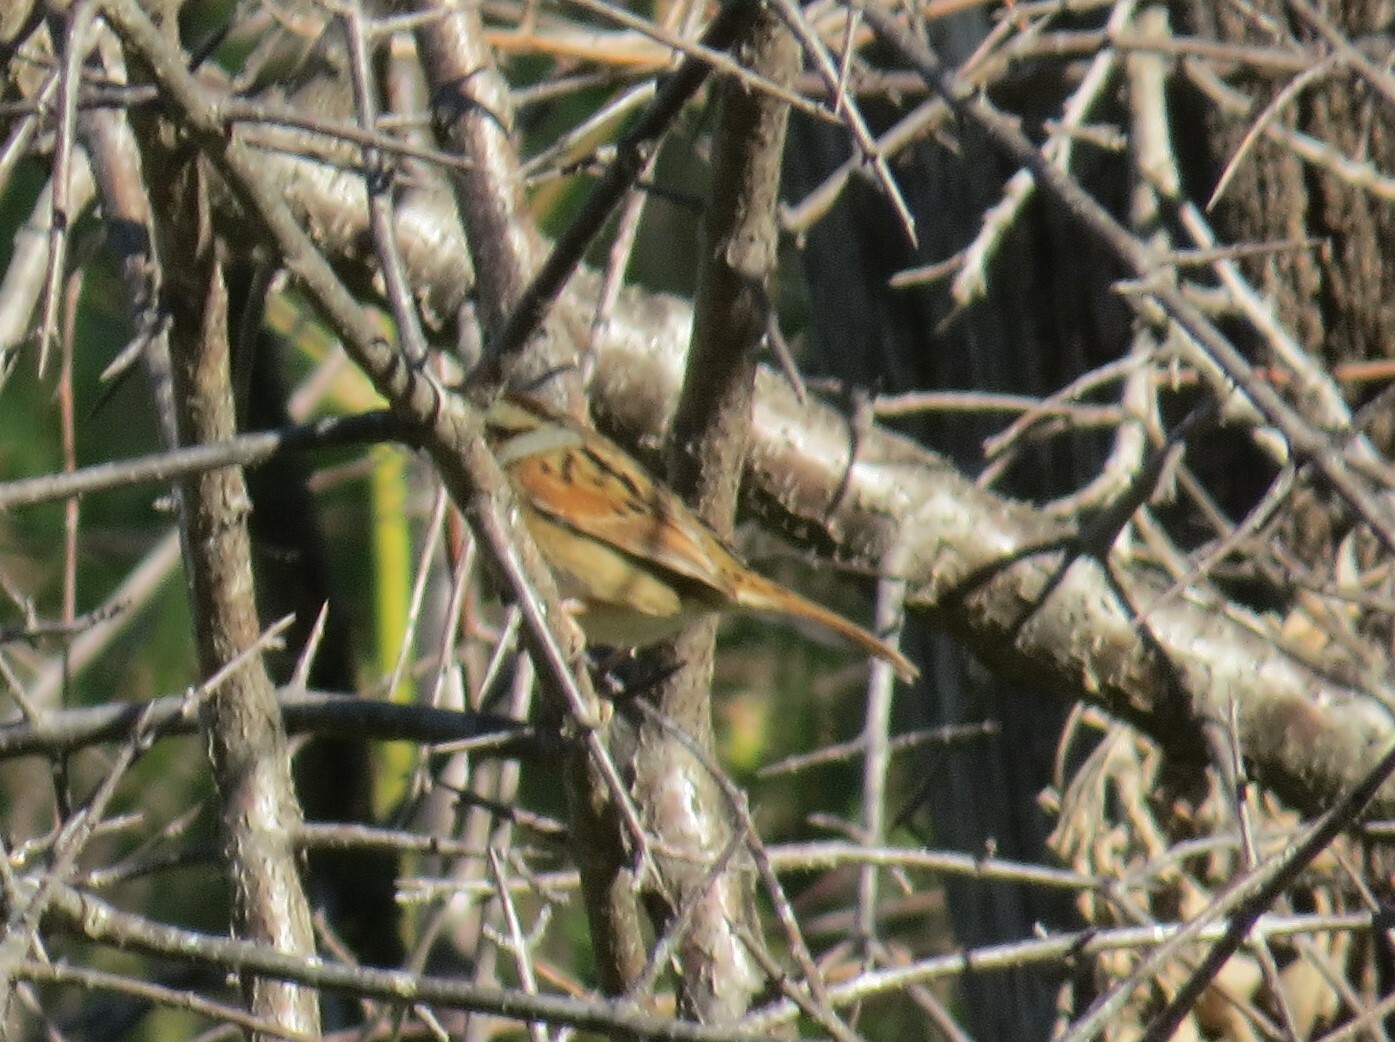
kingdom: Animalia
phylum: Chordata
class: Aves
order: Passeriformes
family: Passerellidae
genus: Melospiza
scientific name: Melospiza georgiana
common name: Swamp sparrow
